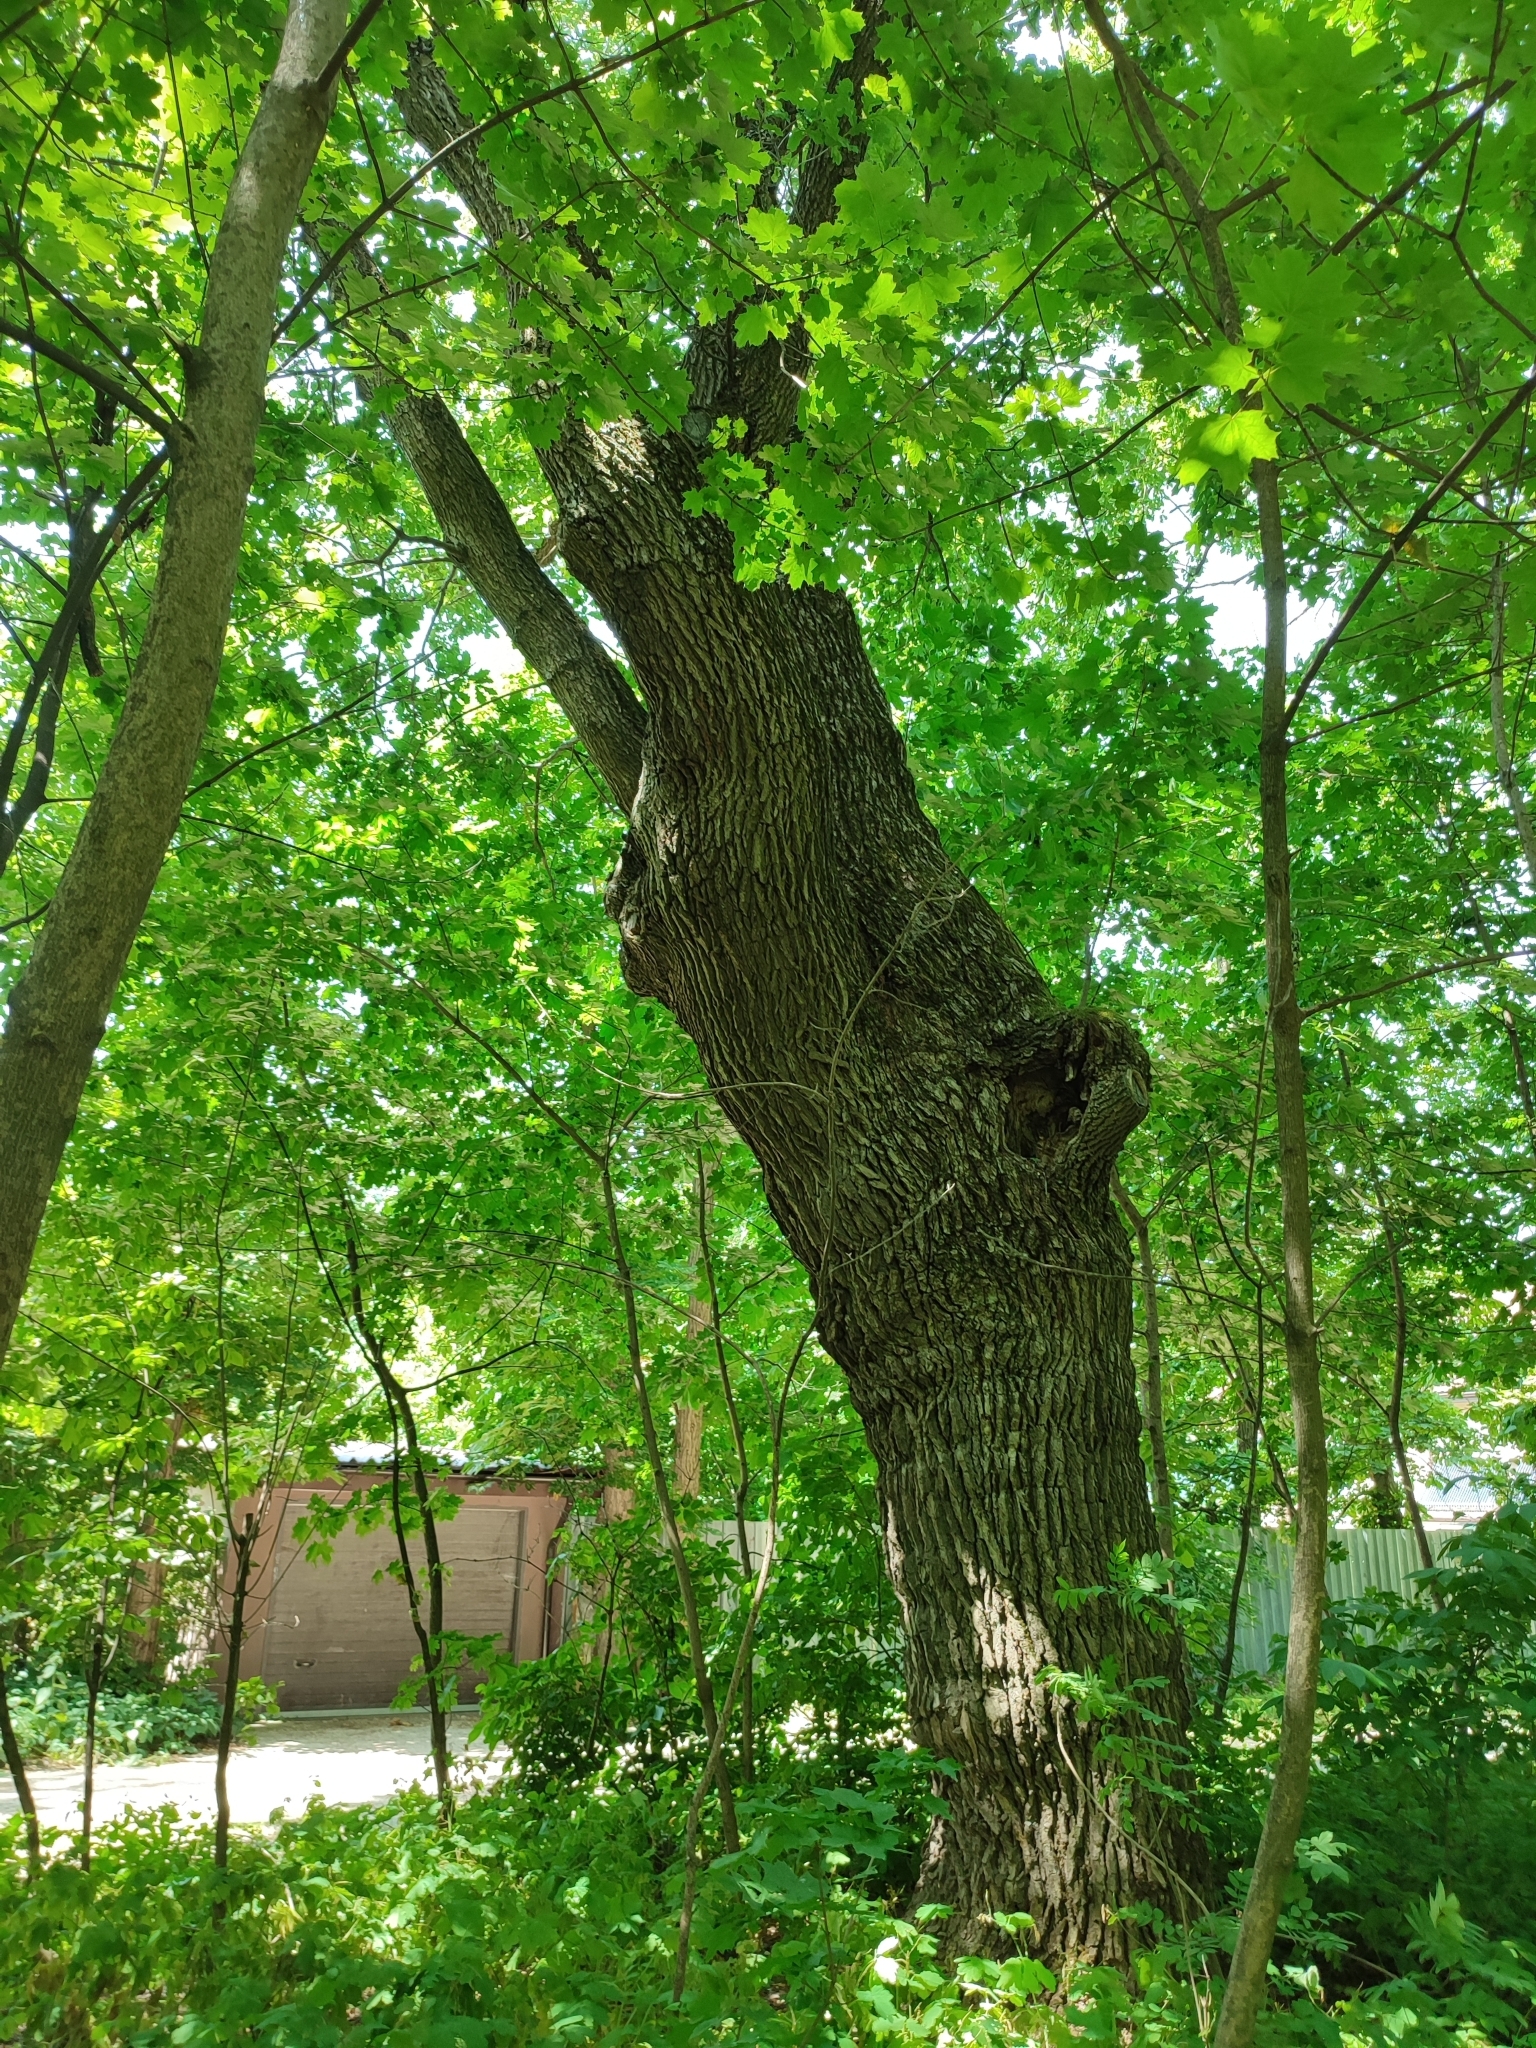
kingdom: Plantae
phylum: Tracheophyta
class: Magnoliopsida
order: Fagales
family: Fagaceae
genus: Quercus
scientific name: Quercus robur
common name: Pedunculate oak
